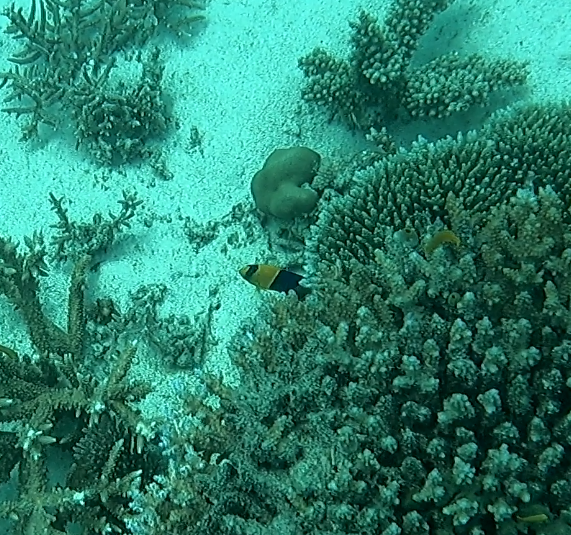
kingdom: Animalia
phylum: Chordata
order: Perciformes
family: Pomacanthidae
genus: Centropyge
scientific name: Centropyge bicolor
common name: Bicolor angelfish
